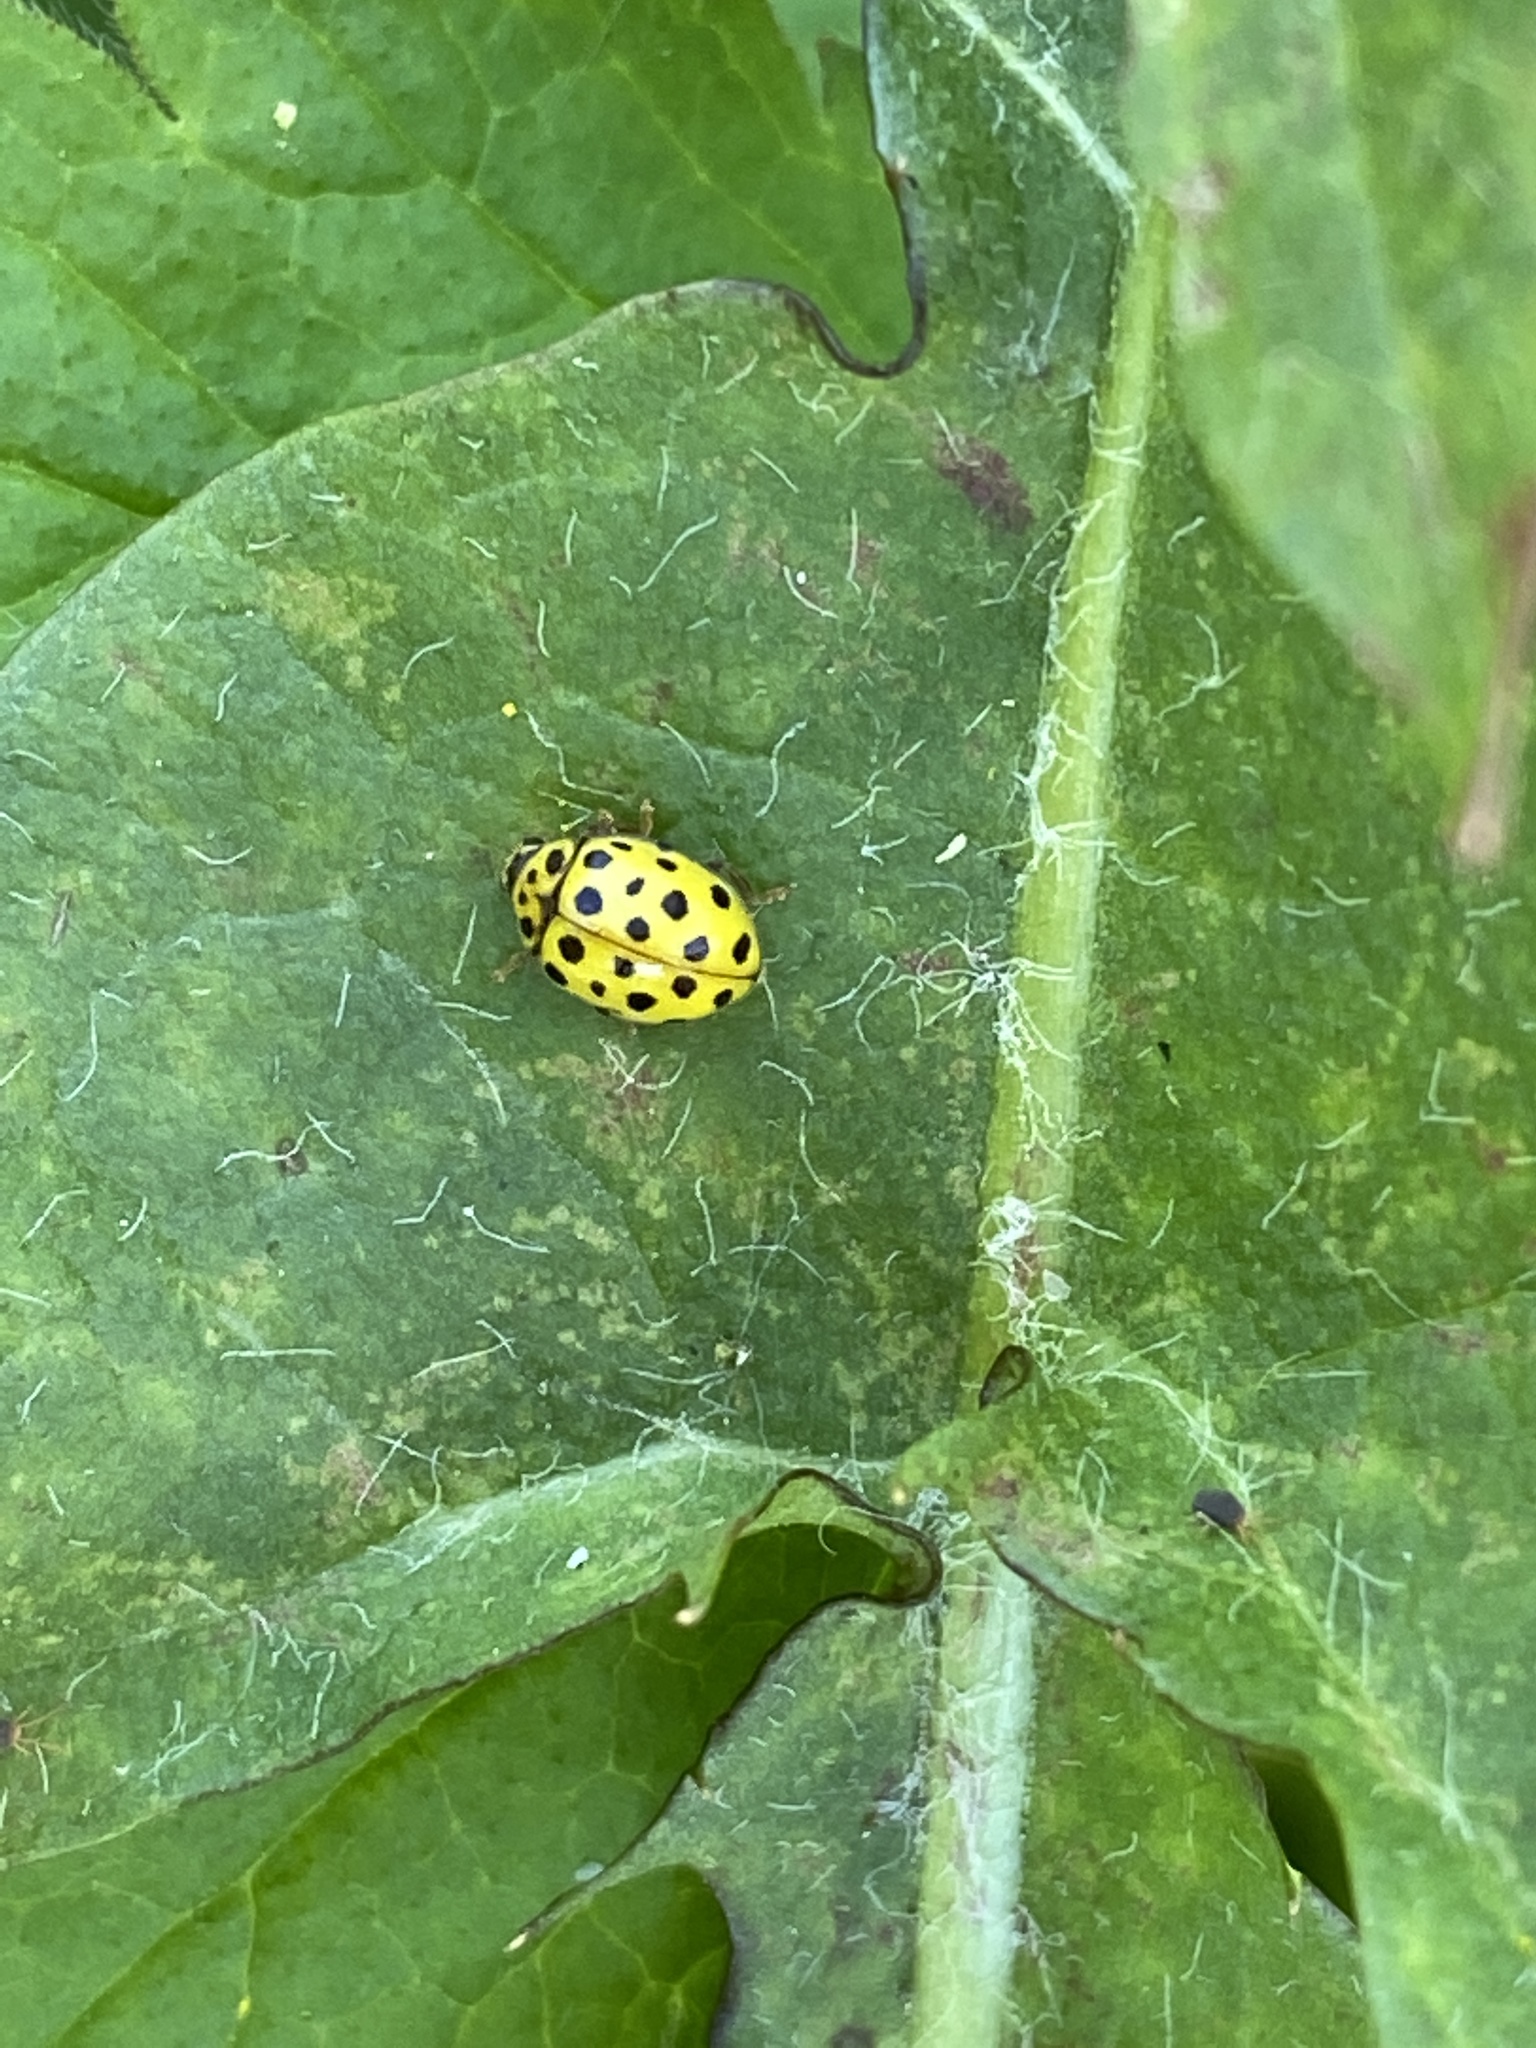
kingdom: Animalia
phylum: Arthropoda
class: Insecta
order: Coleoptera
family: Coccinellidae
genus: Psyllobora
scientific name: Psyllobora vigintiduopunctata
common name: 22-spot ladybird
